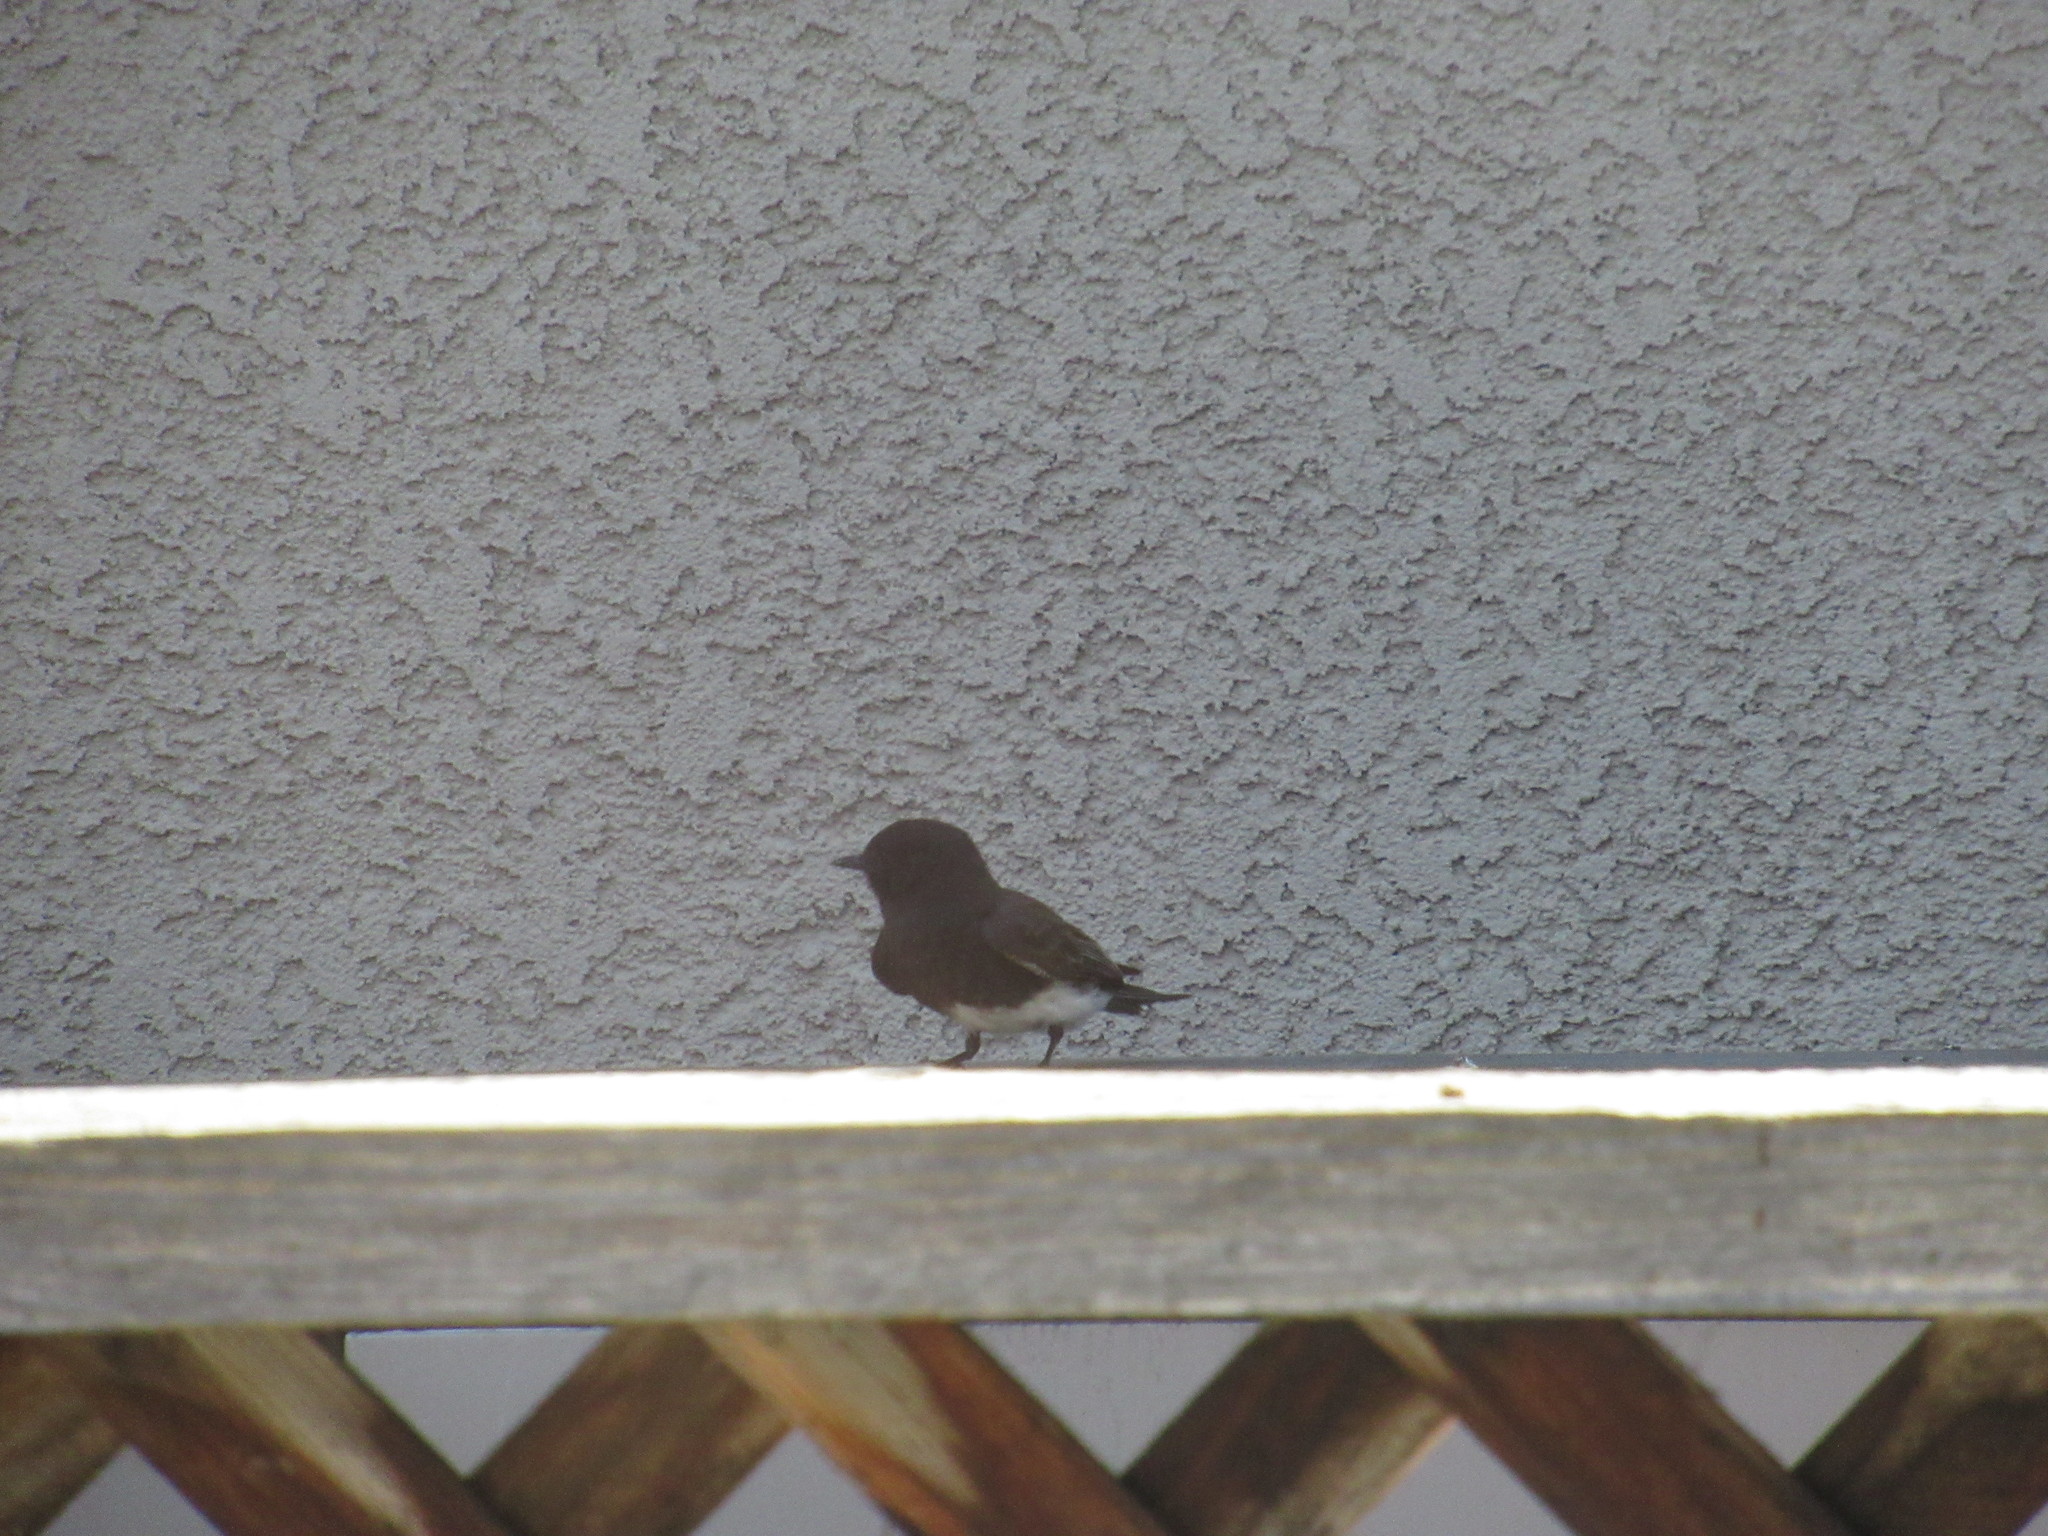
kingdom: Animalia
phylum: Chordata
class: Aves
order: Passeriformes
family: Tyrannidae
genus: Sayornis
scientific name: Sayornis nigricans
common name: Black phoebe
